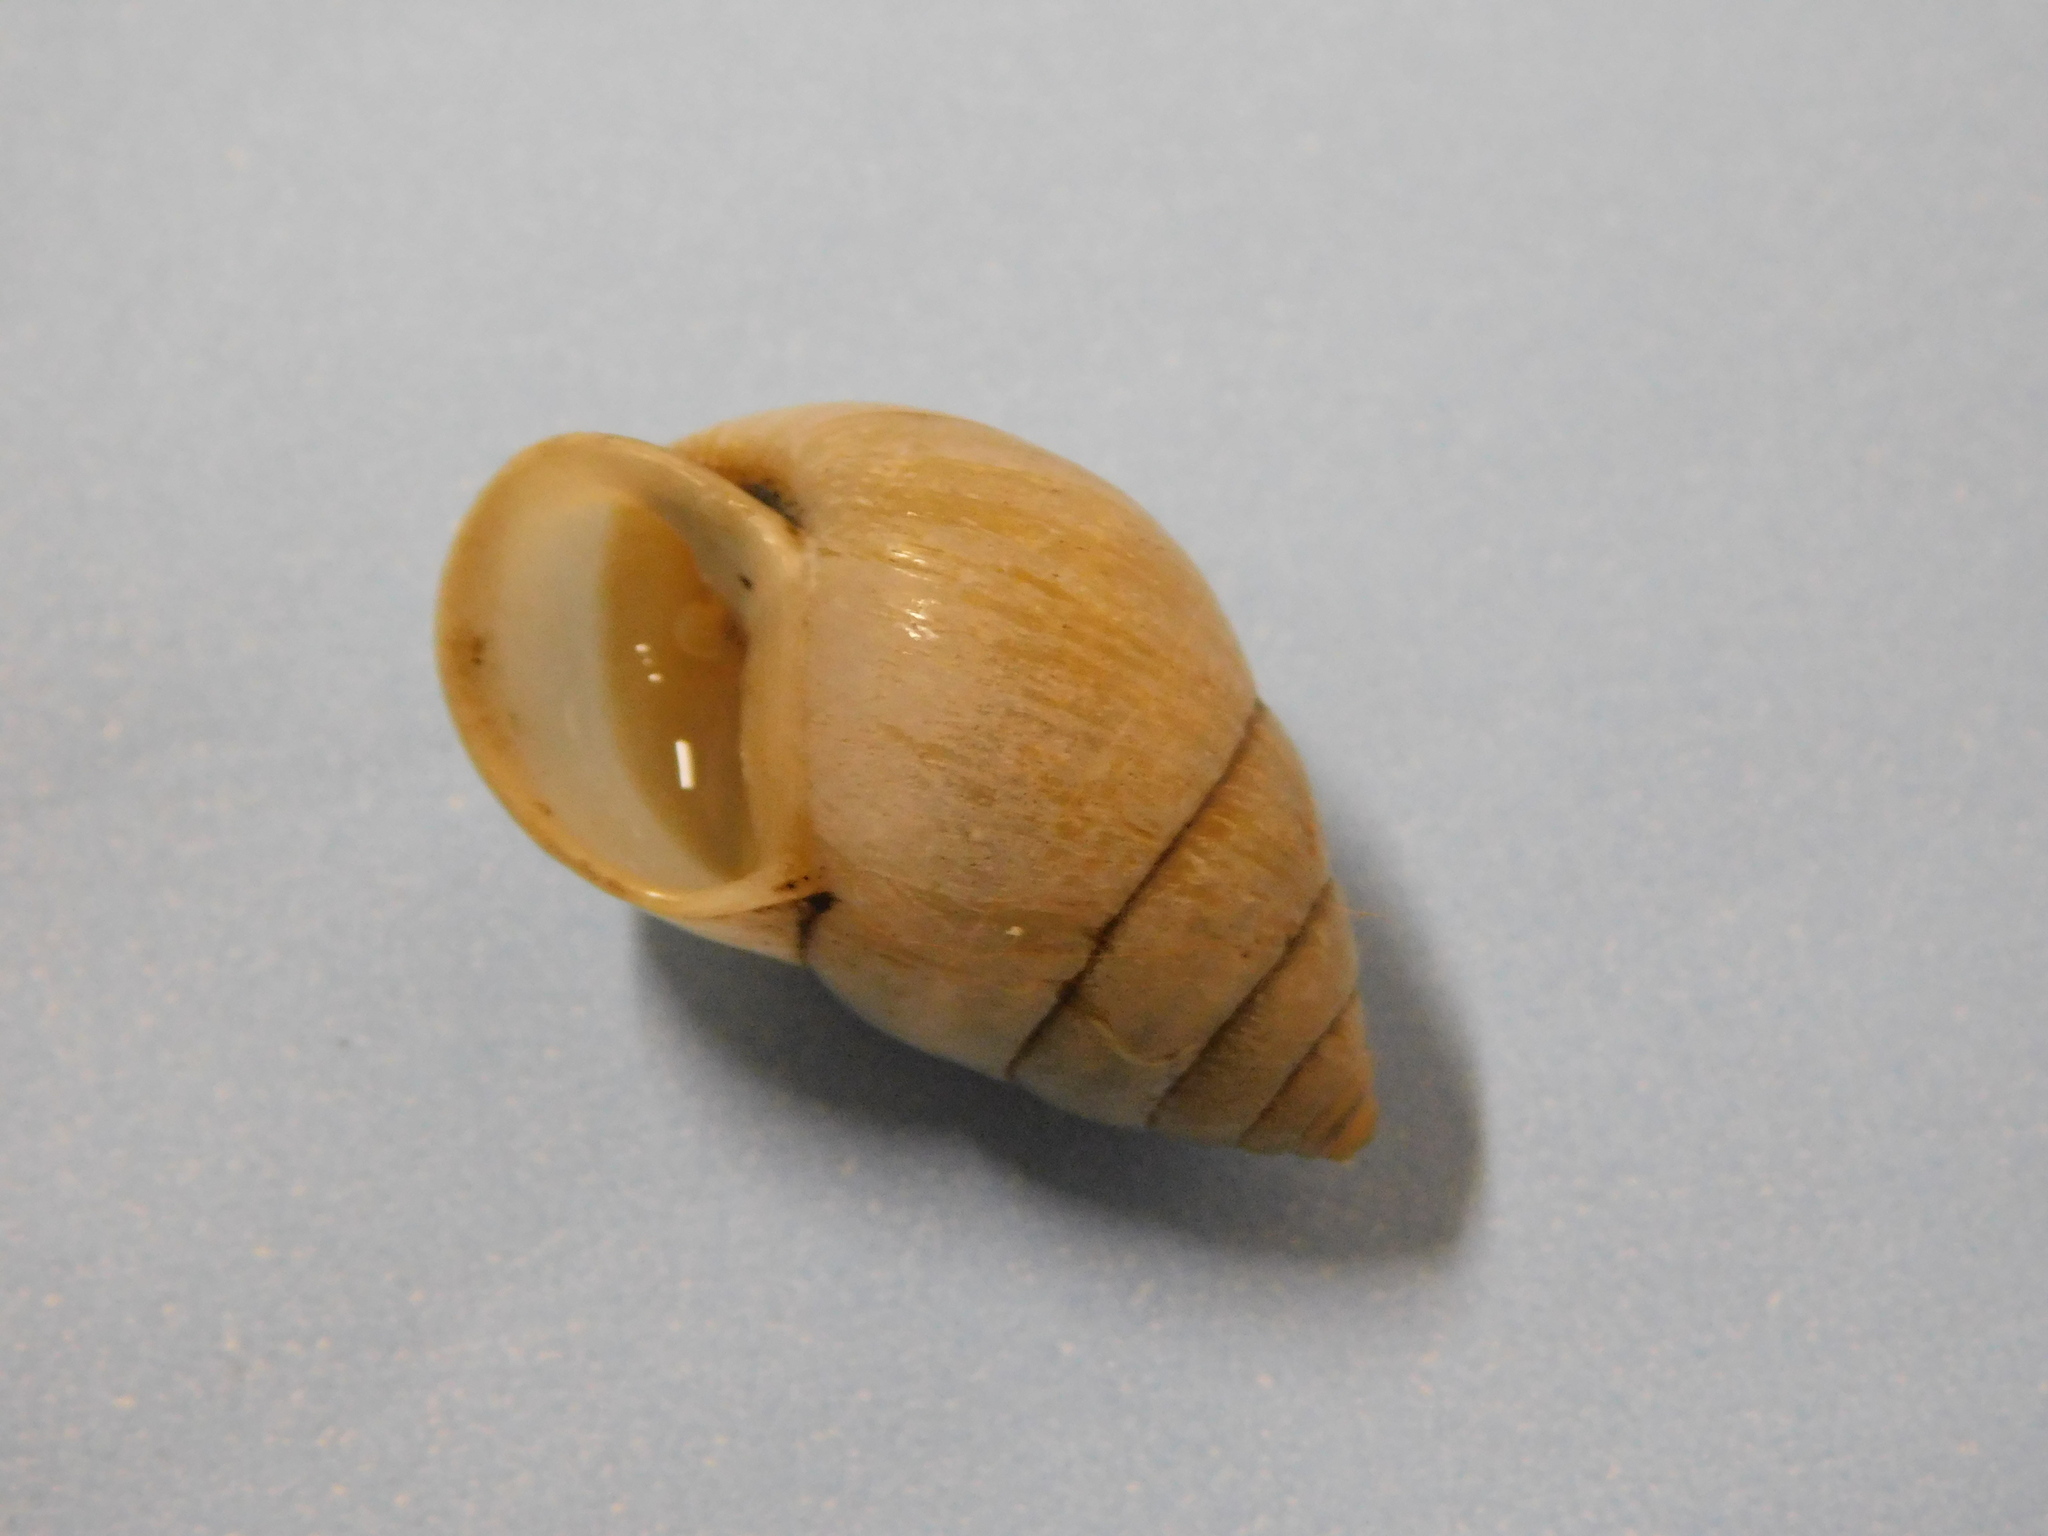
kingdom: Animalia
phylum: Mollusca
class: Gastropoda
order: Stylommatophora
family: Bulimulidae
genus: Bulimulus
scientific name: Bulimulus rushii
